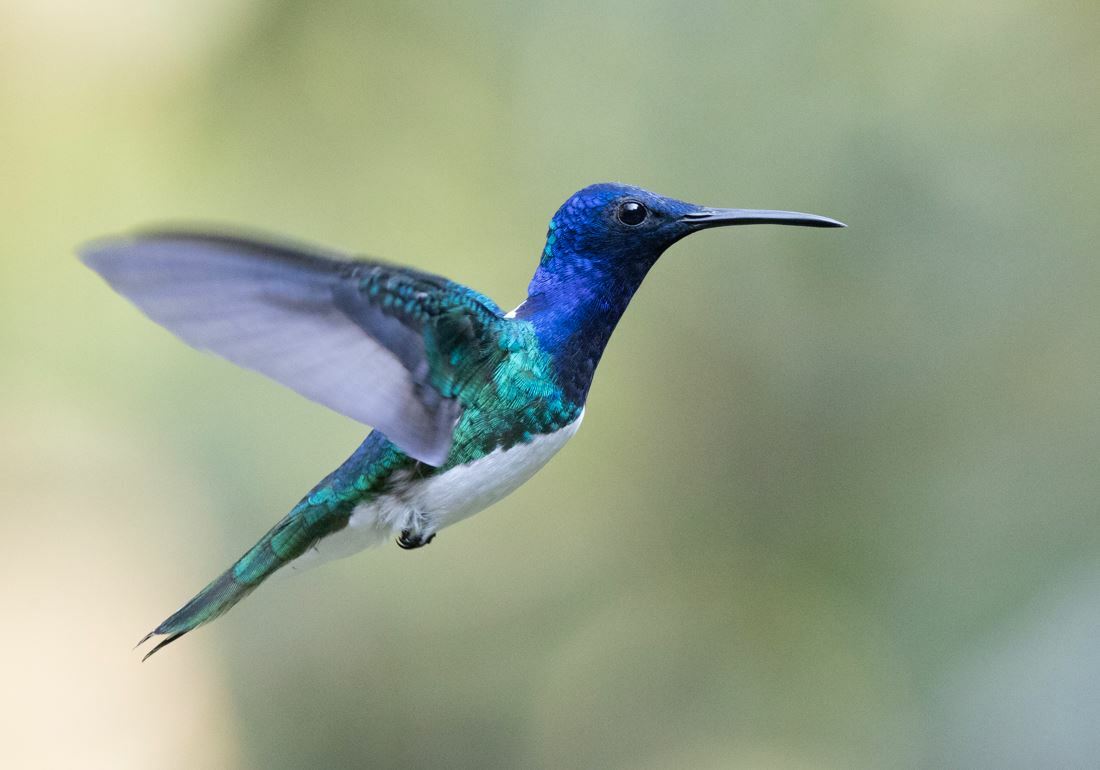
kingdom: Animalia
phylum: Chordata
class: Aves
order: Apodiformes
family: Trochilidae
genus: Florisuga
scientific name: Florisuga mellivora
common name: White-necked jacobin
